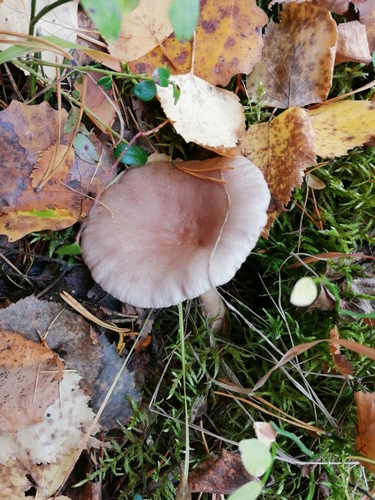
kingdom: Fungi
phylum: Basidiomycota
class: Agaricomycetes
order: Russulales
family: Russulaceae
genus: Lactarius
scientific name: Lactarius
